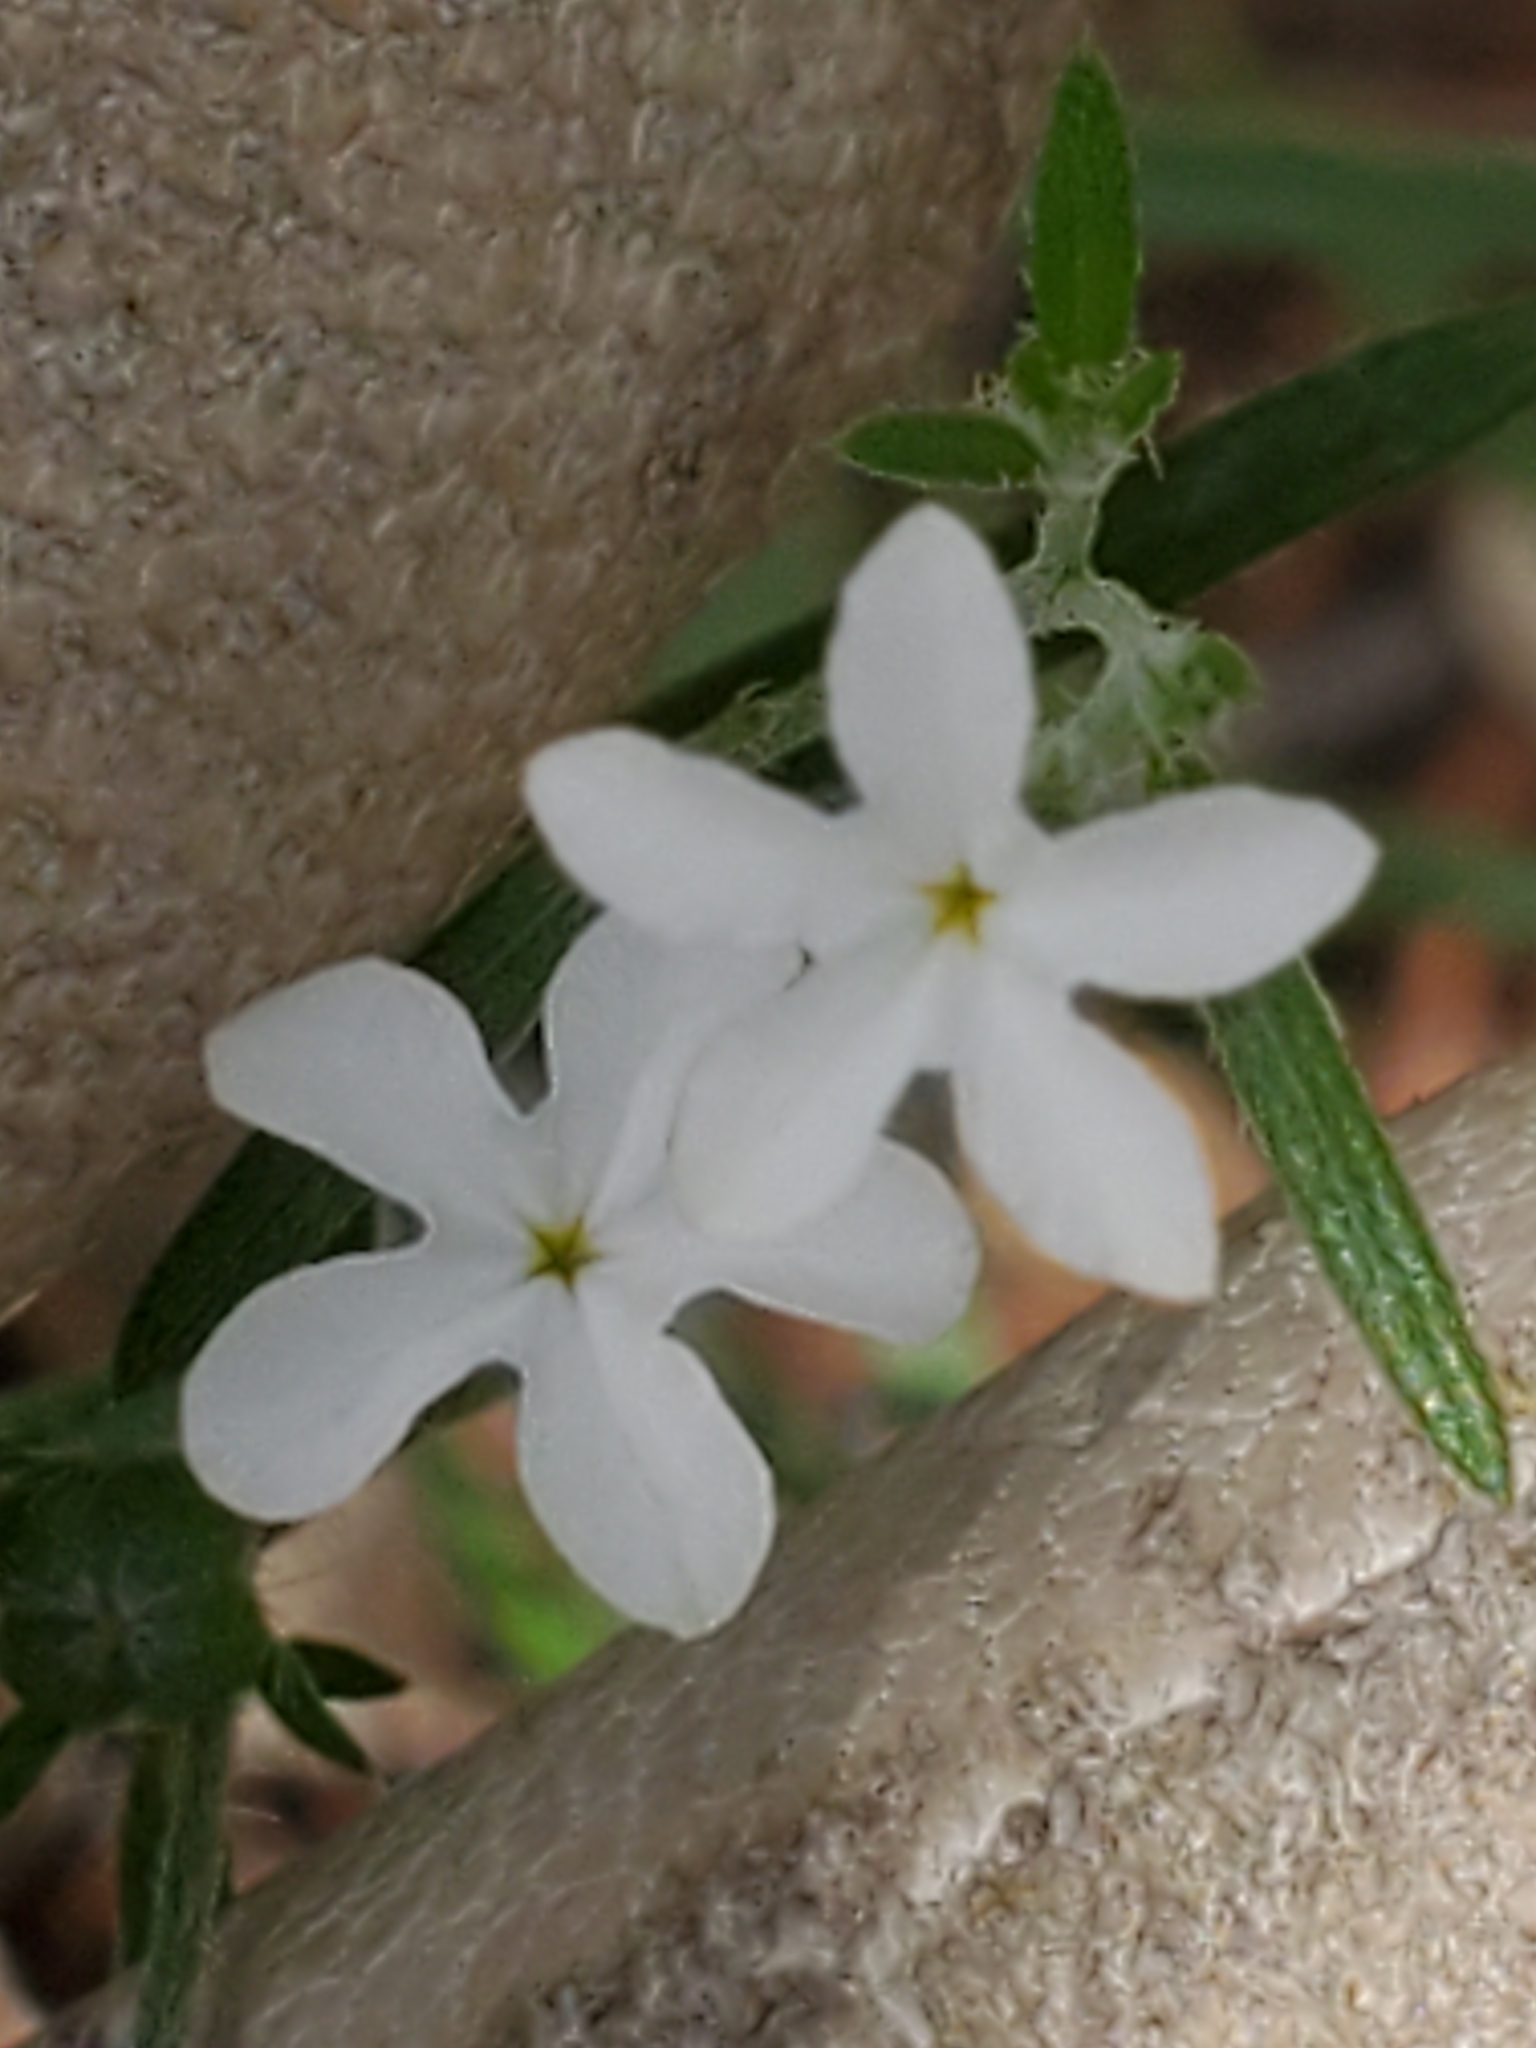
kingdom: Plantae
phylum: Tracheophyta
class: Magnoliopsida
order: Boraginales
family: Heliotropiaceae
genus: Euploca
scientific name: Euploca tenella
